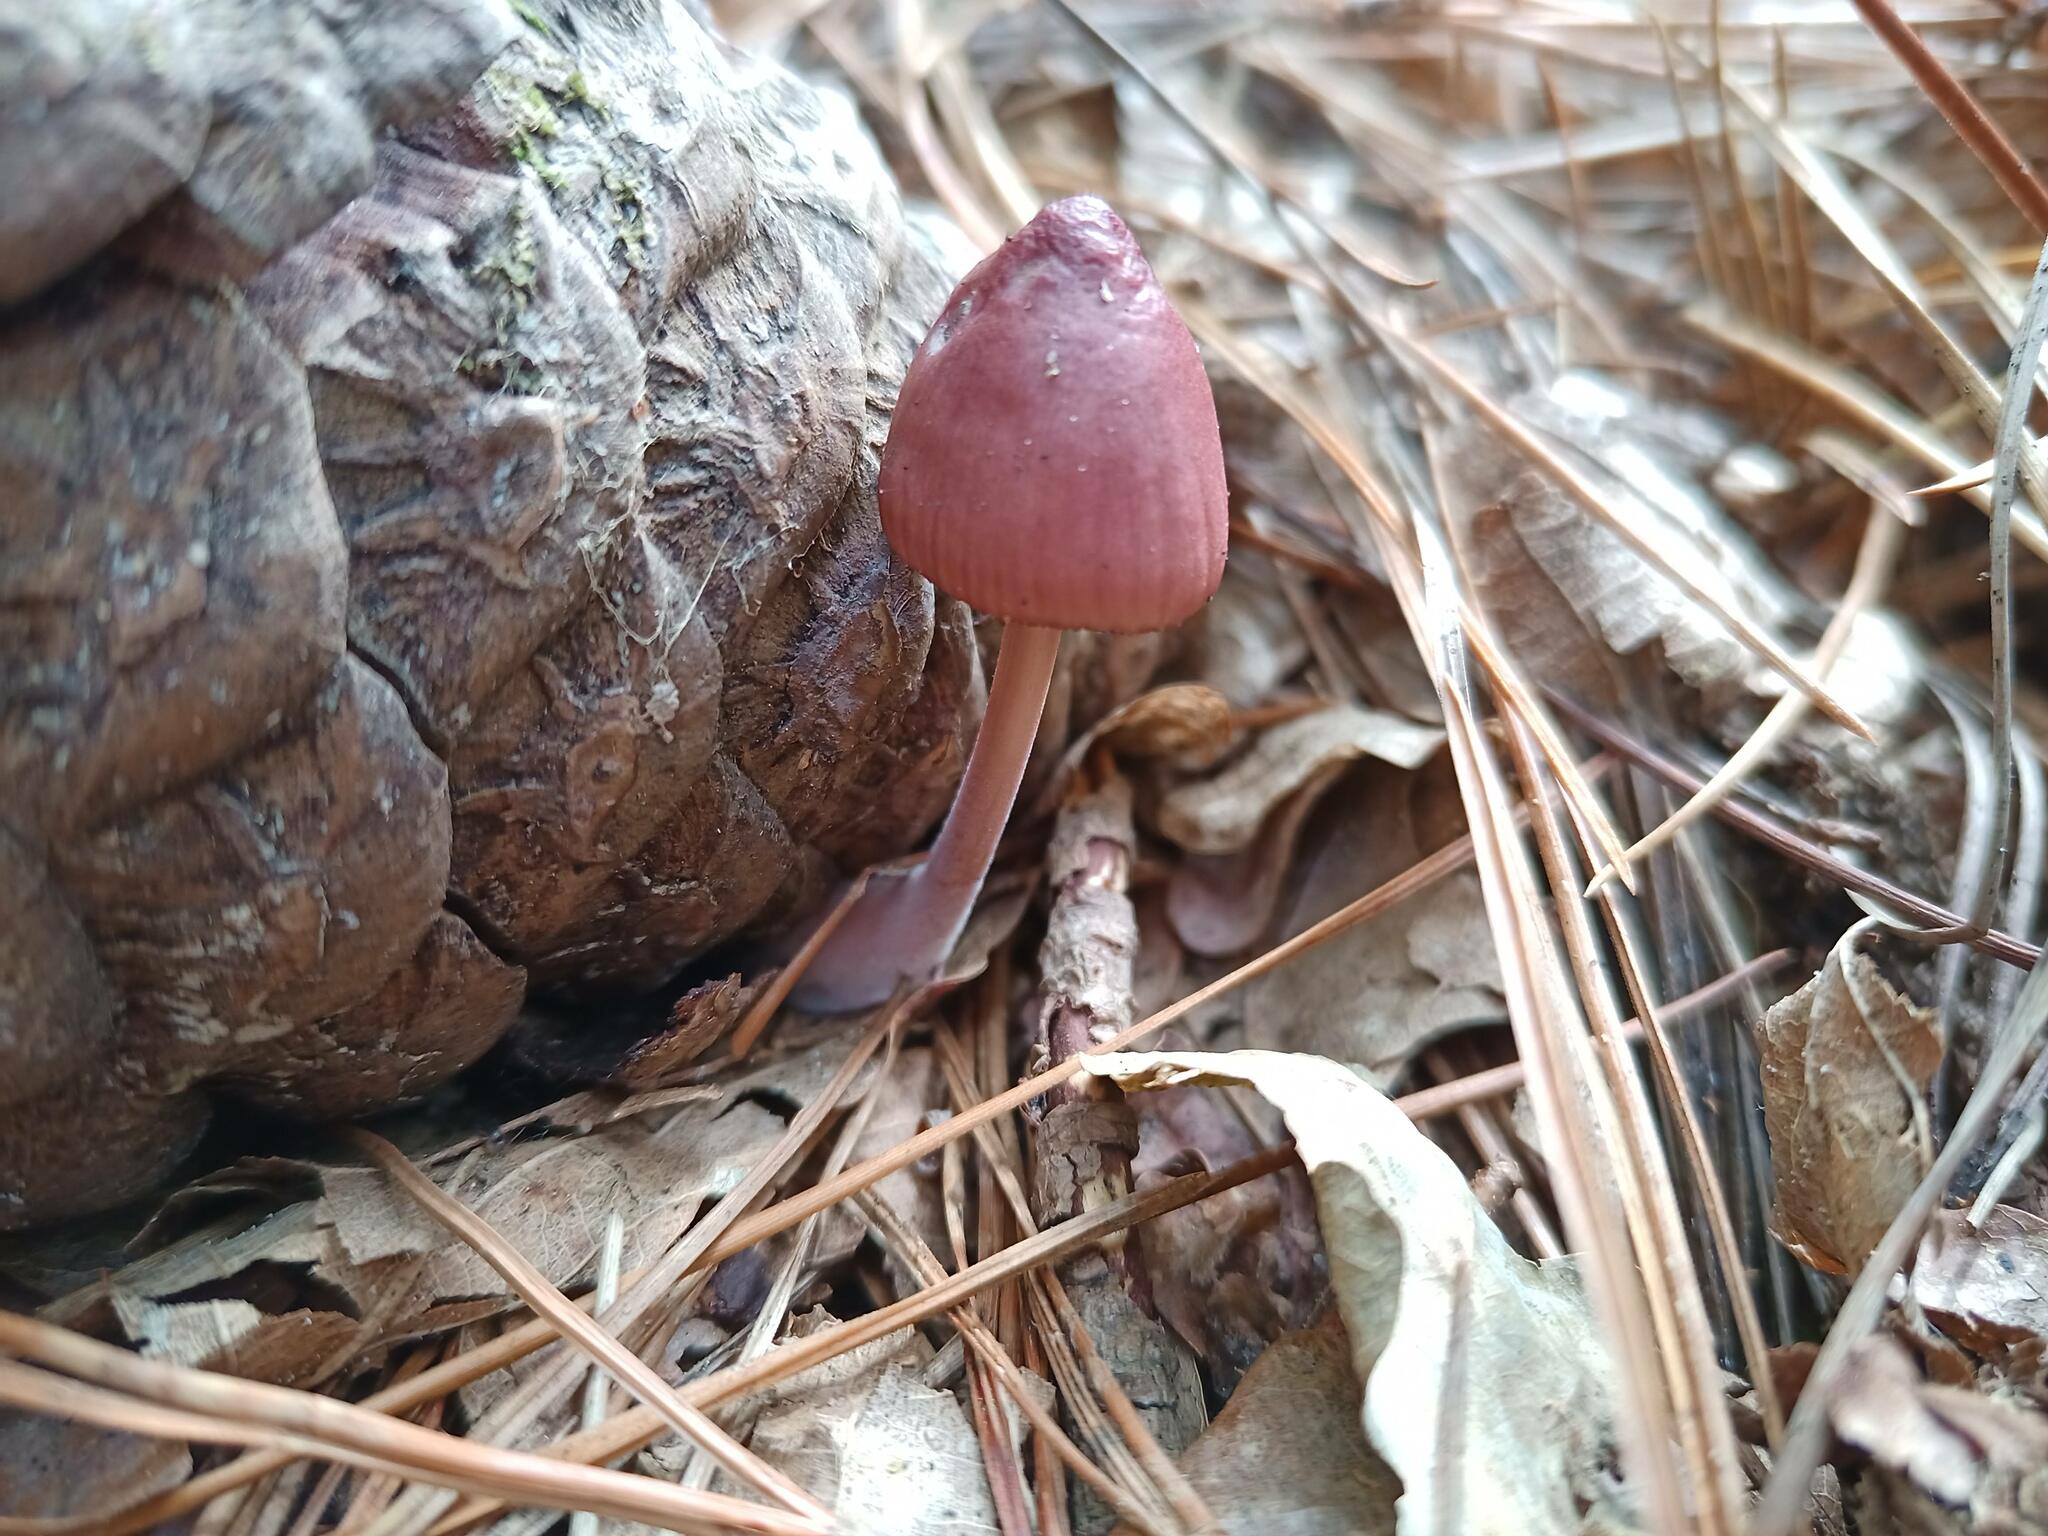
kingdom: Fungi
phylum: Basidiomycota
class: Agaricomycetes
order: Agaricales
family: Mycenaceae
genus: Mycena
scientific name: Mycena seynii
